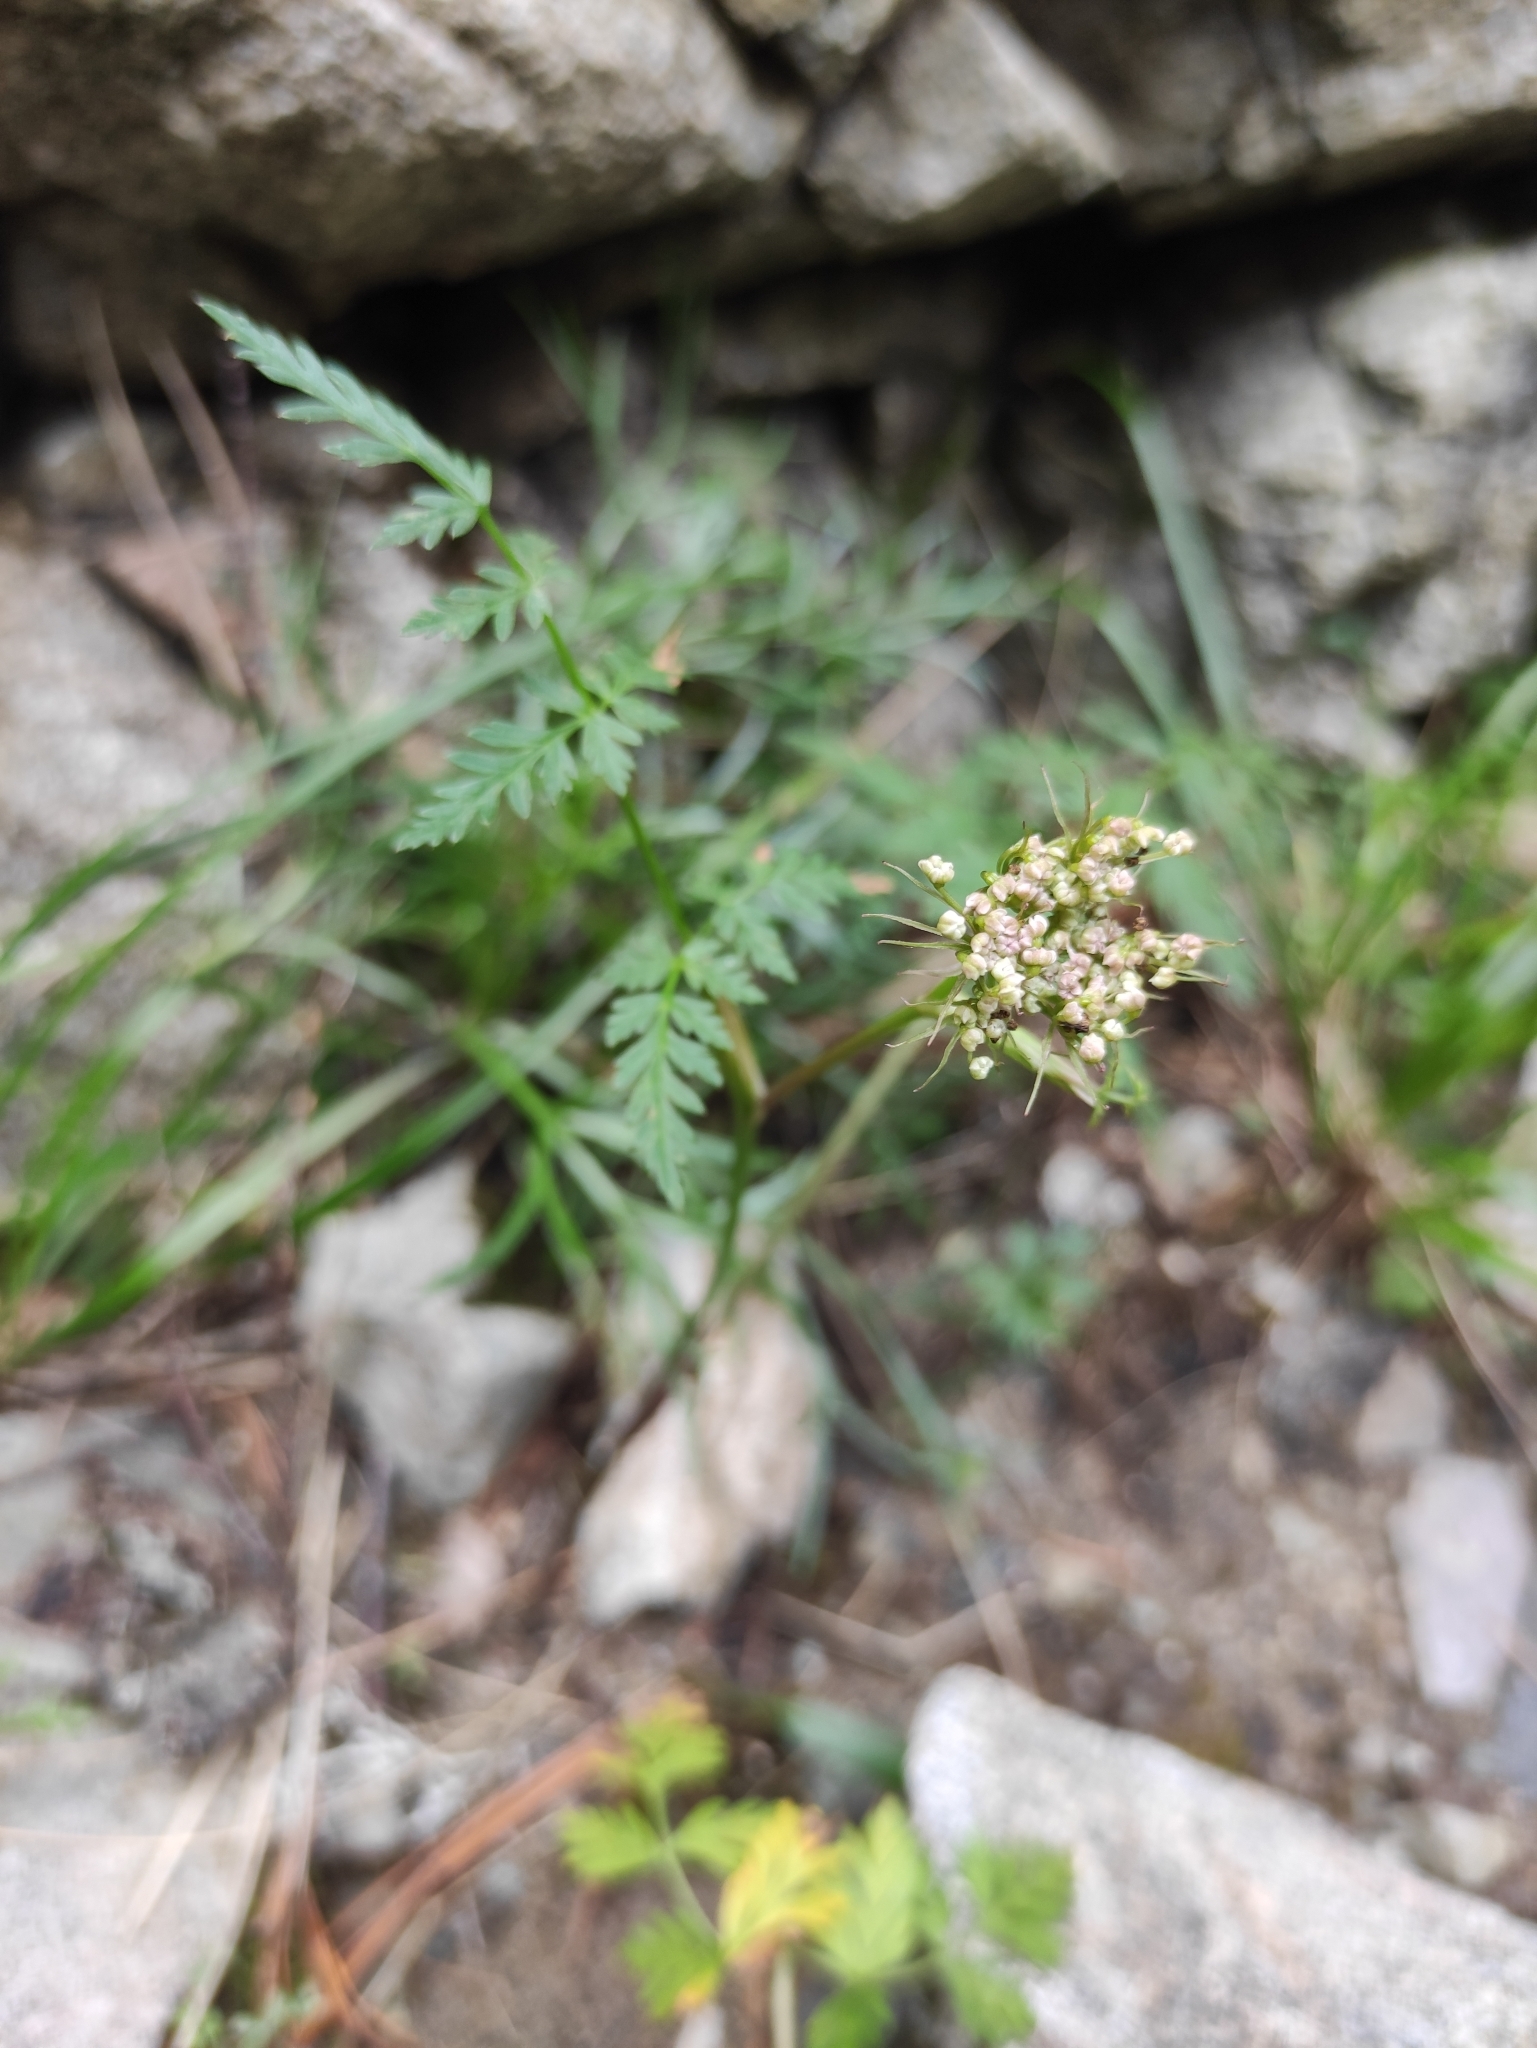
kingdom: Plantae
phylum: Tracheophyta
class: Magnoliopsida
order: Apiales
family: Apiaceae
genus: Conioselinum
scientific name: Conioselinum tataricum
